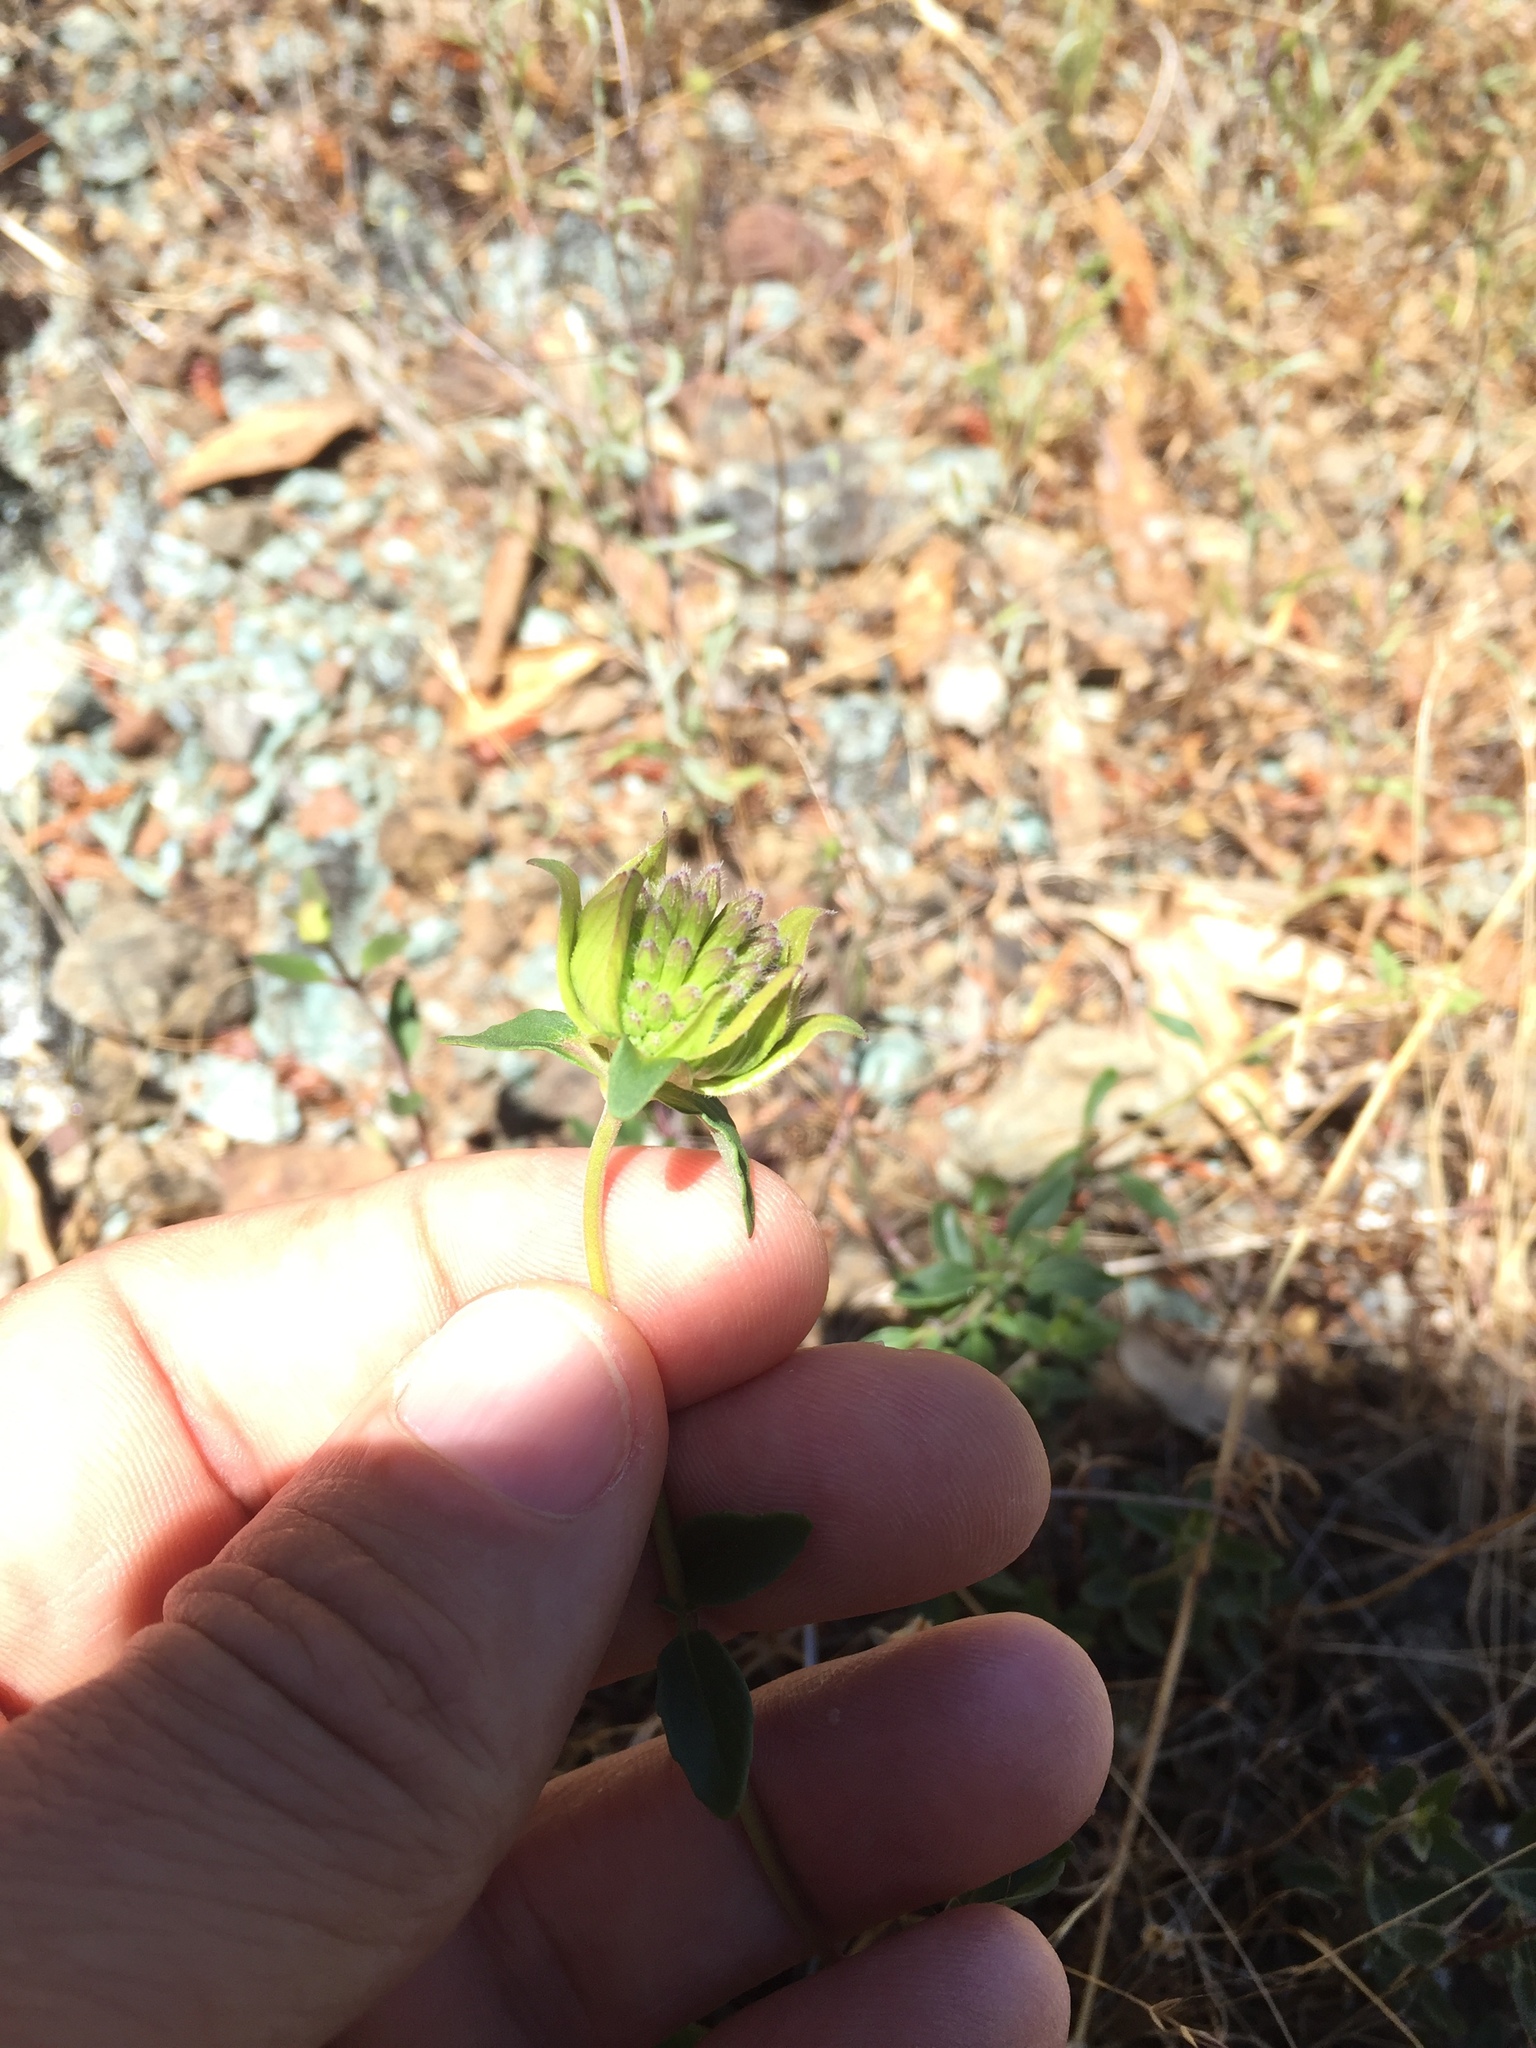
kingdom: Plantae
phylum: Tracheophyta
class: Magnoliopsida
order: Lamiales
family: Lamiaceae
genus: Monardella
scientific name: Monardella purpurea
